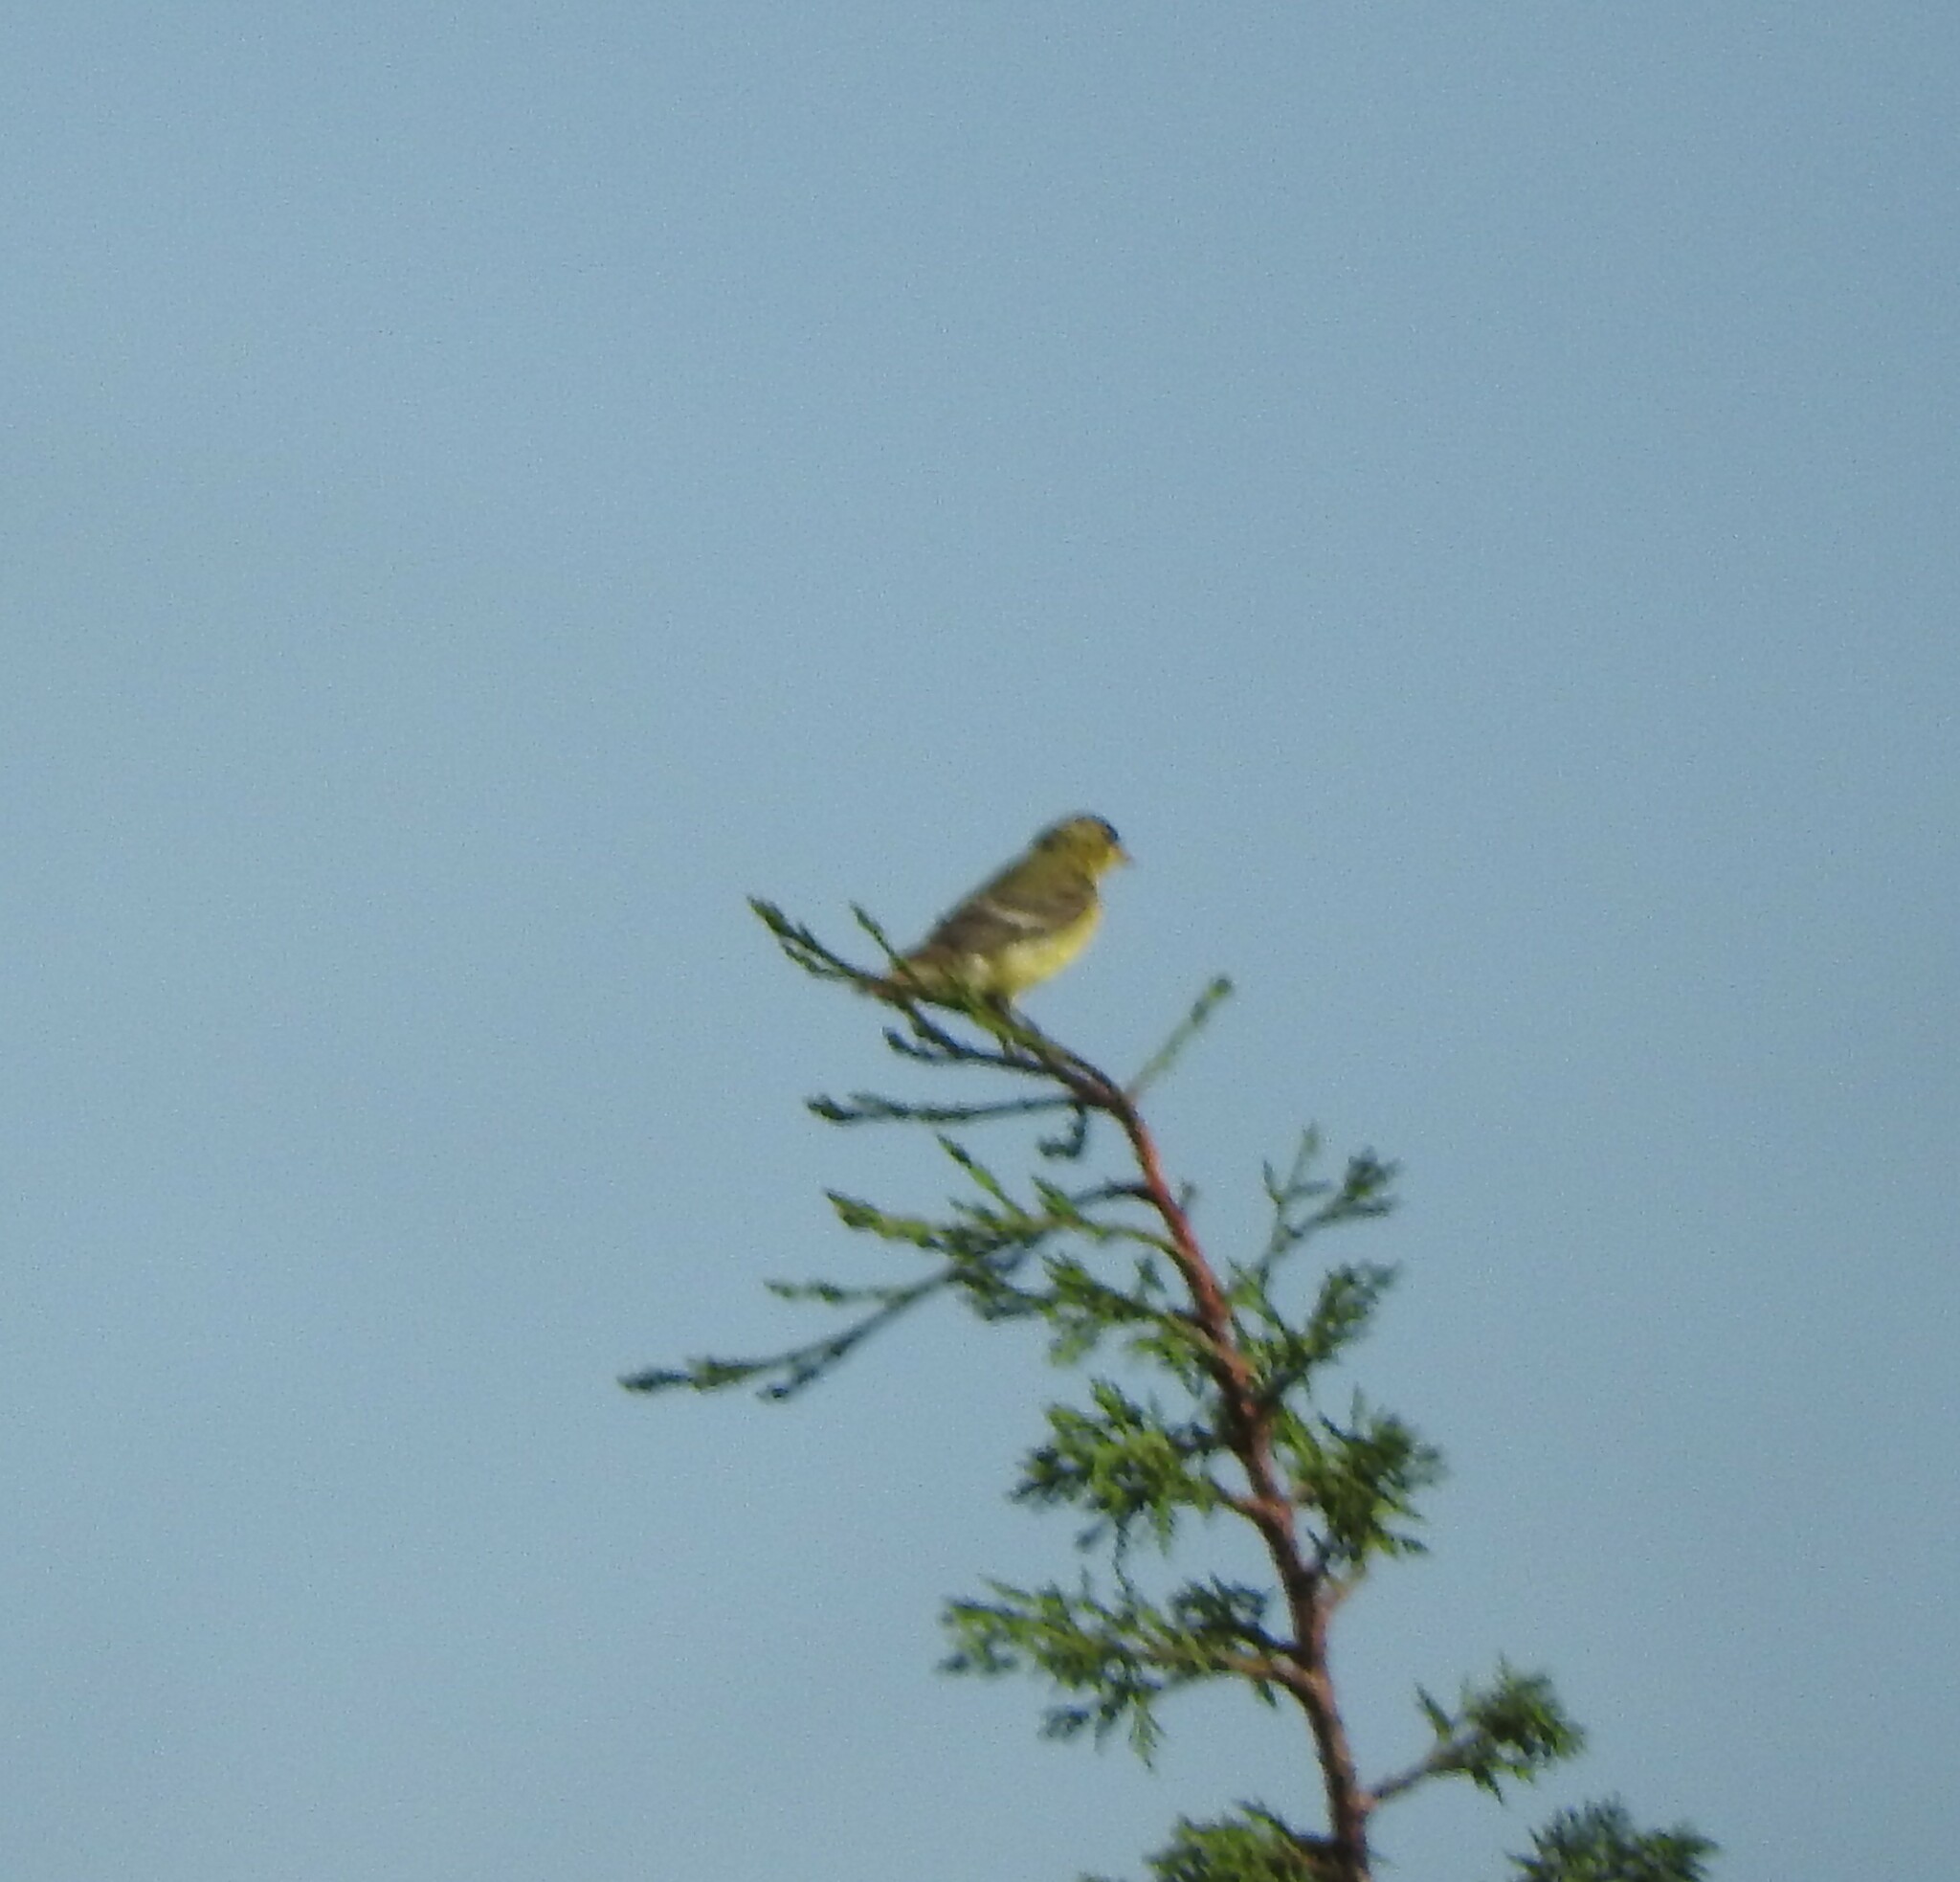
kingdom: Animalia
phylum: Chordata
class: Aves
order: Passeriformes
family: Fringillidae
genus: Spinus
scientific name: Spinus psaltria
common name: Lesser goldfinch
